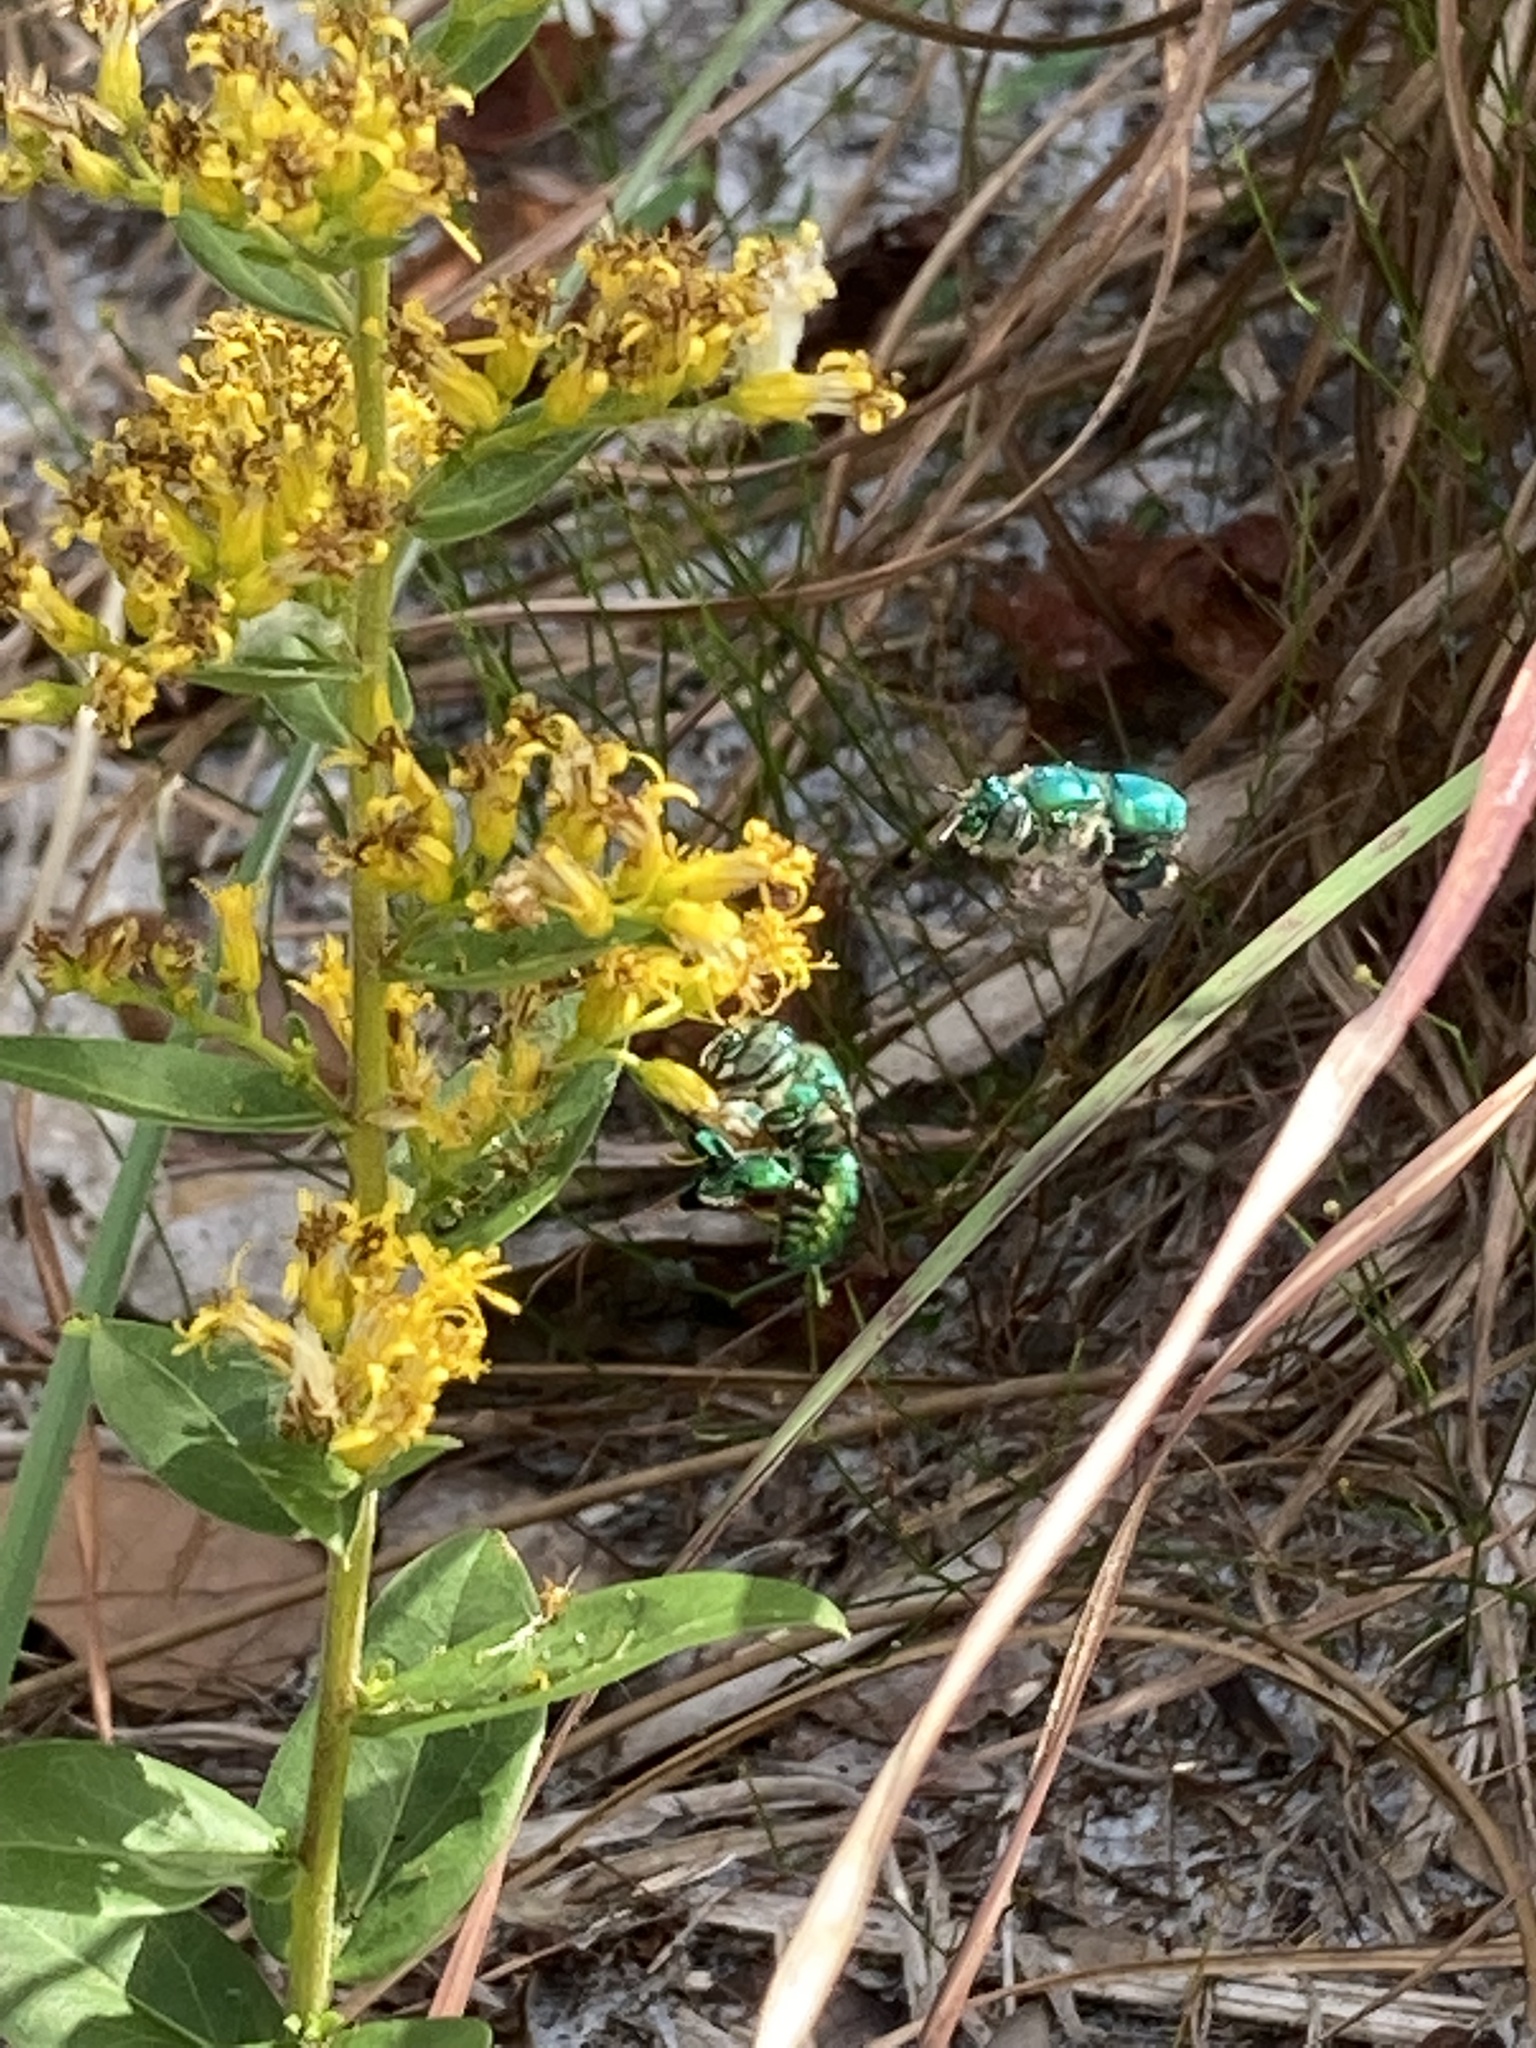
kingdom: Animalia
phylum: Arthropoda
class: Insecta
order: Hymenoptera
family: Apidae
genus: Euglossa
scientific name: Euglossa dilemma
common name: Green orchid bee
